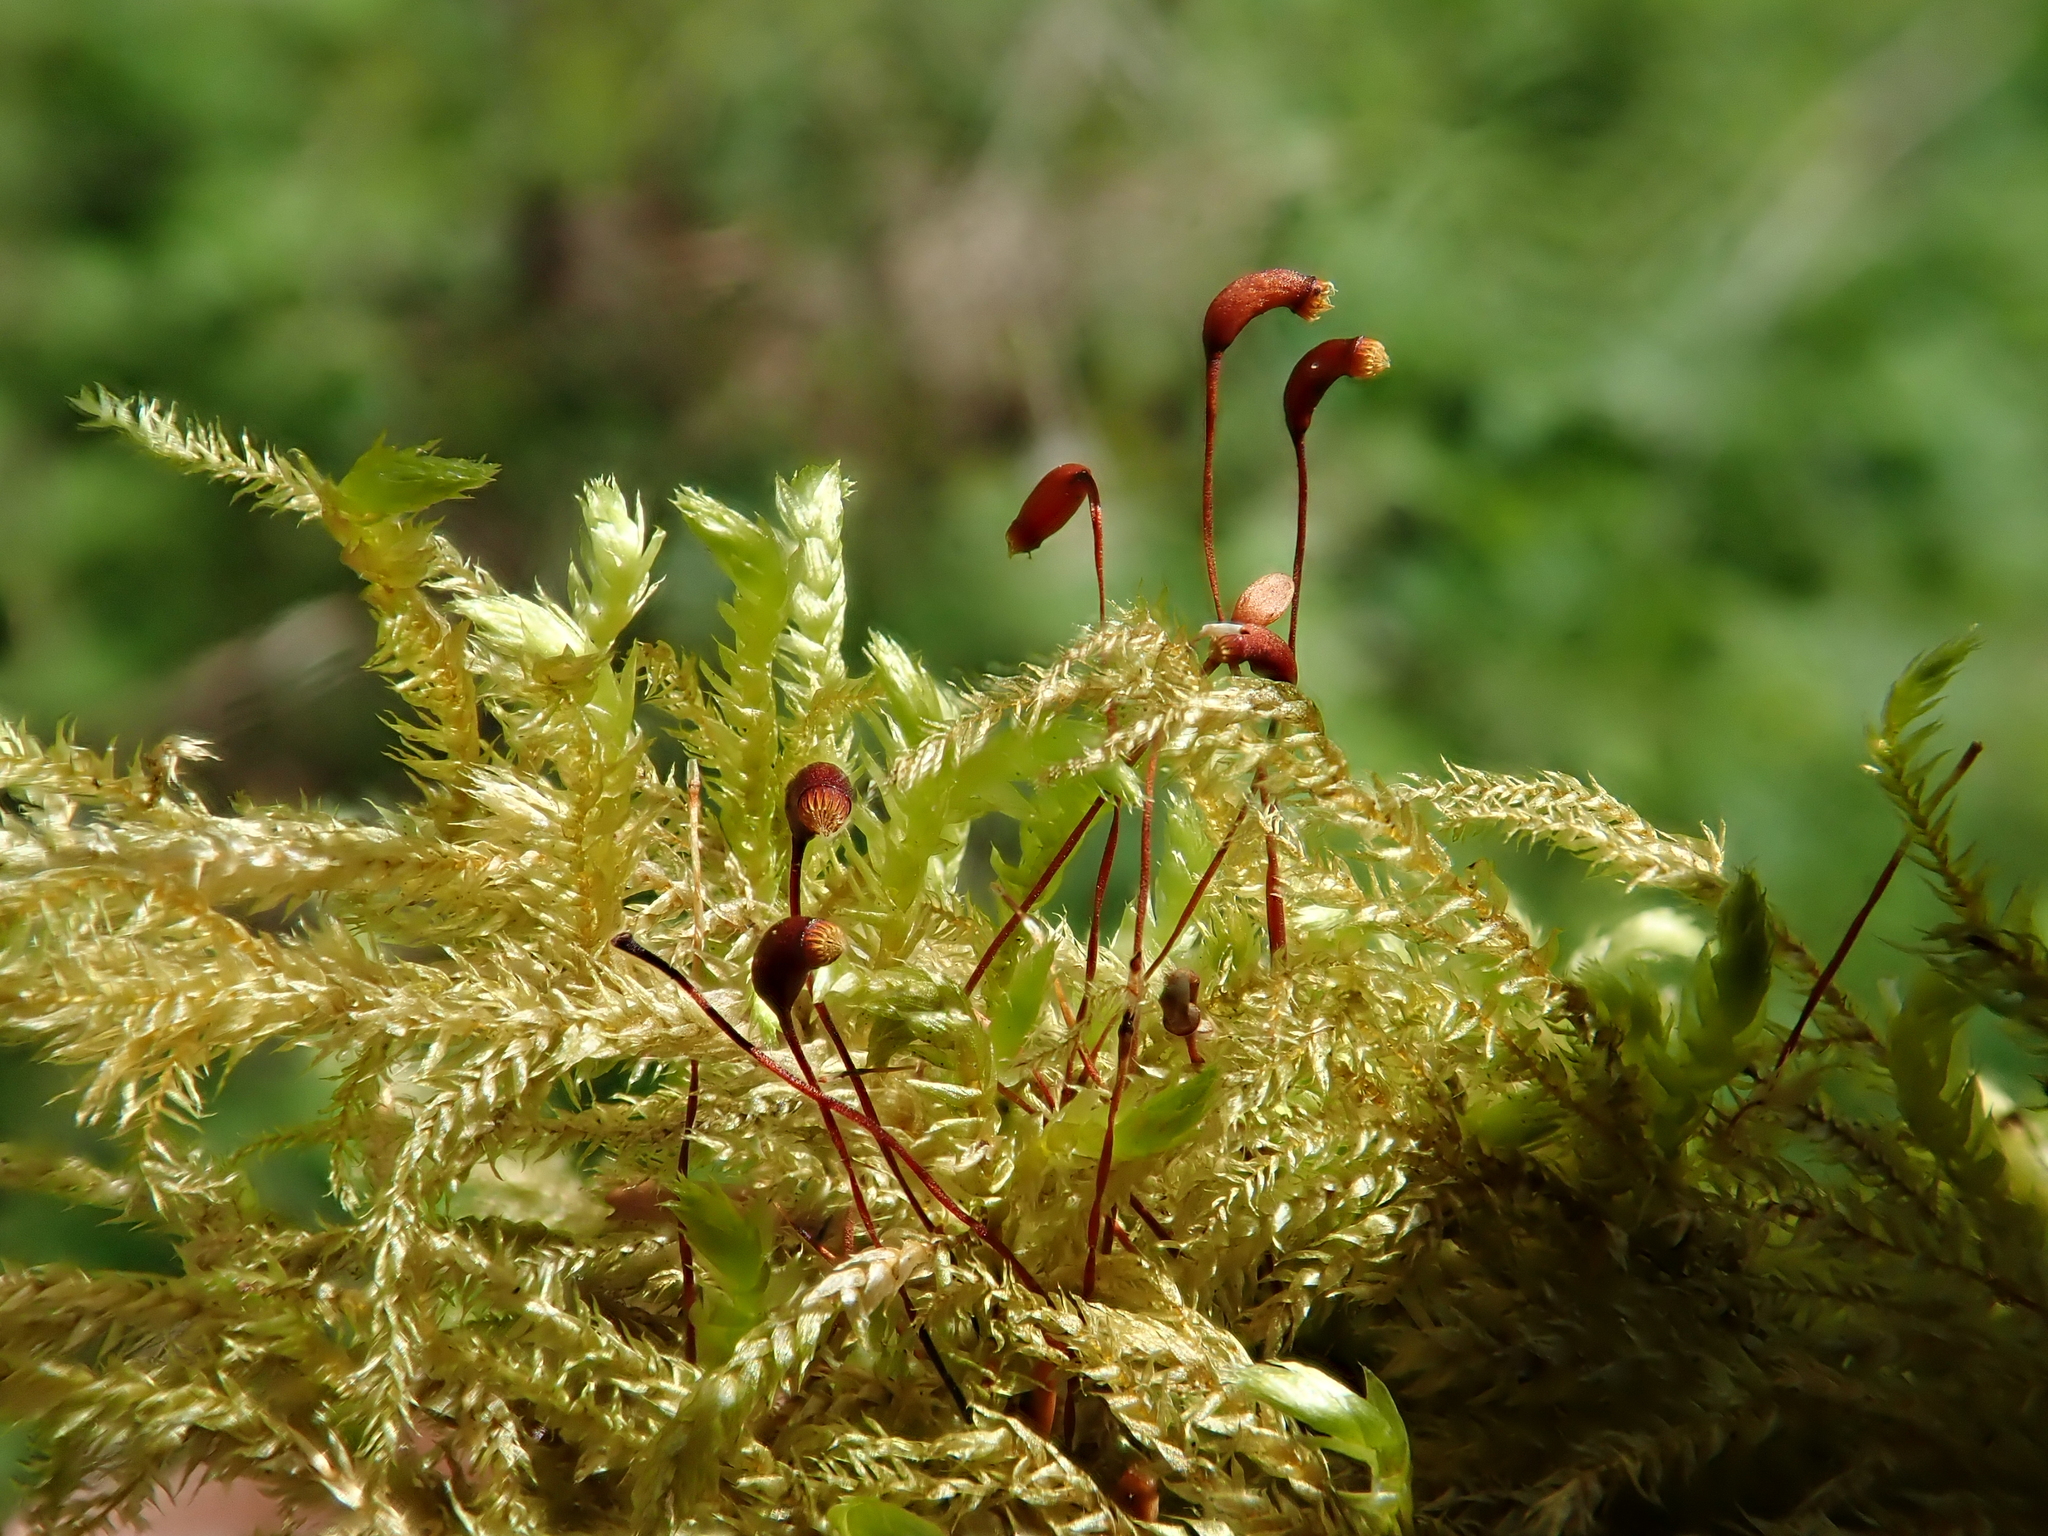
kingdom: Plantae
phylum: Bryophyta
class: Bryopsida
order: Hypnales
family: Brachytheciaceae
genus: Brachythecium
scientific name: Brachythecium rutabulum
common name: Rough-stalked feather-moss
